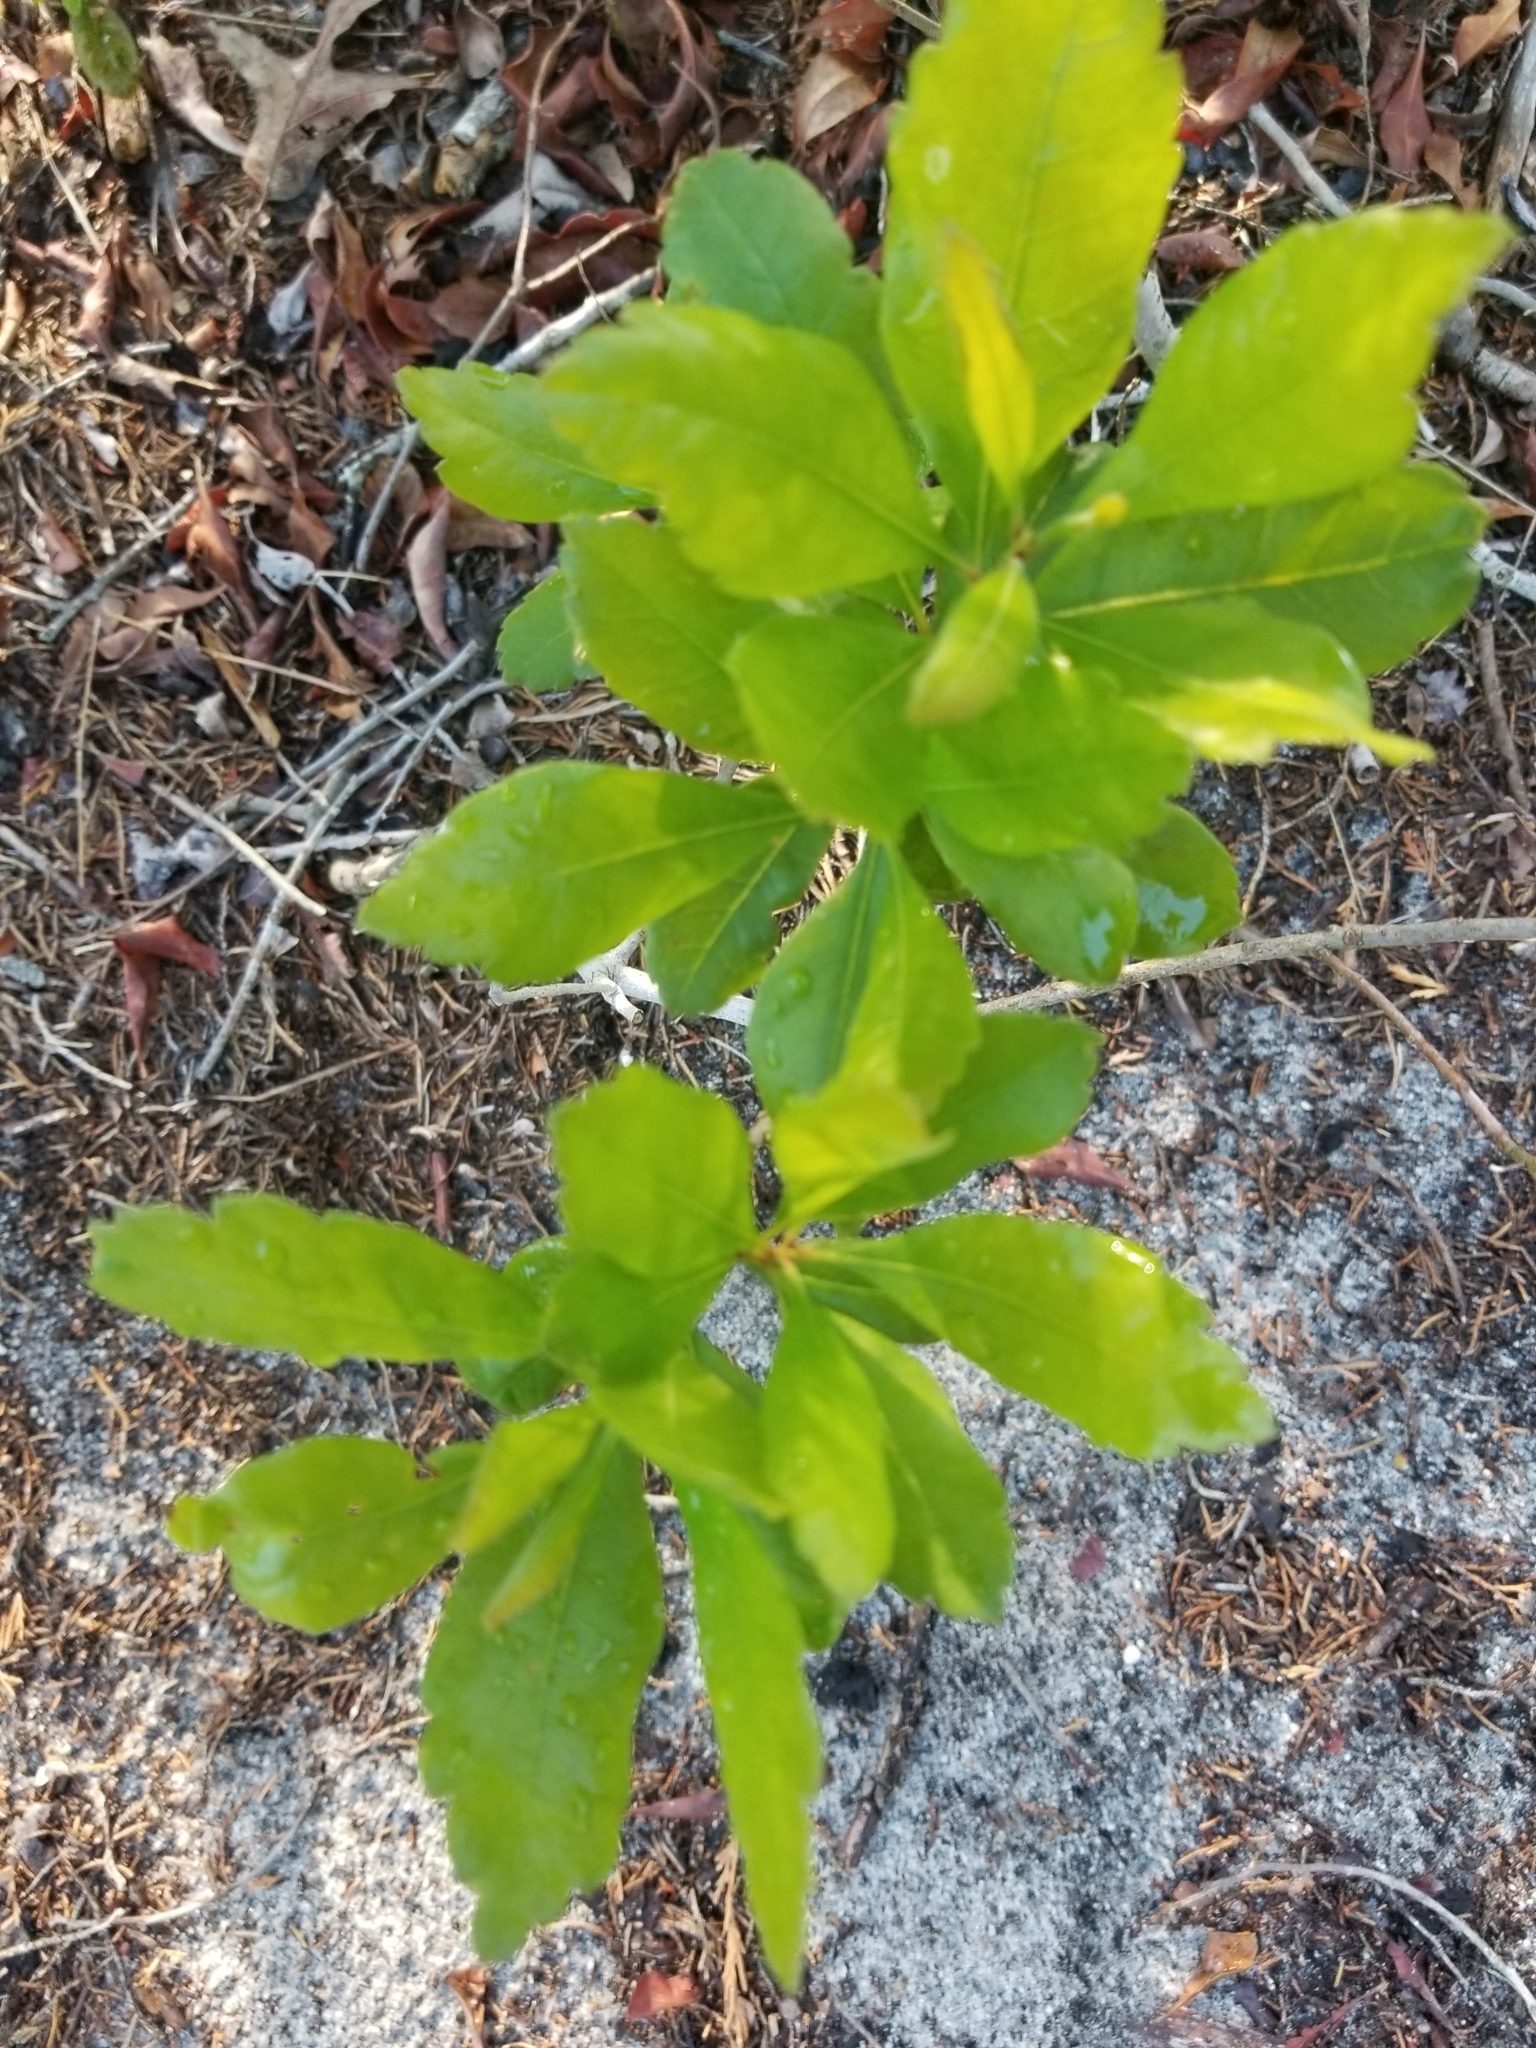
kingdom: Plantae
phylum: Tracheophyta
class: Magnoliopsida
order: Fagales
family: Myricaceae
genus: Morella
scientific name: Morella pensylvanica
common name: Northern bayberry
